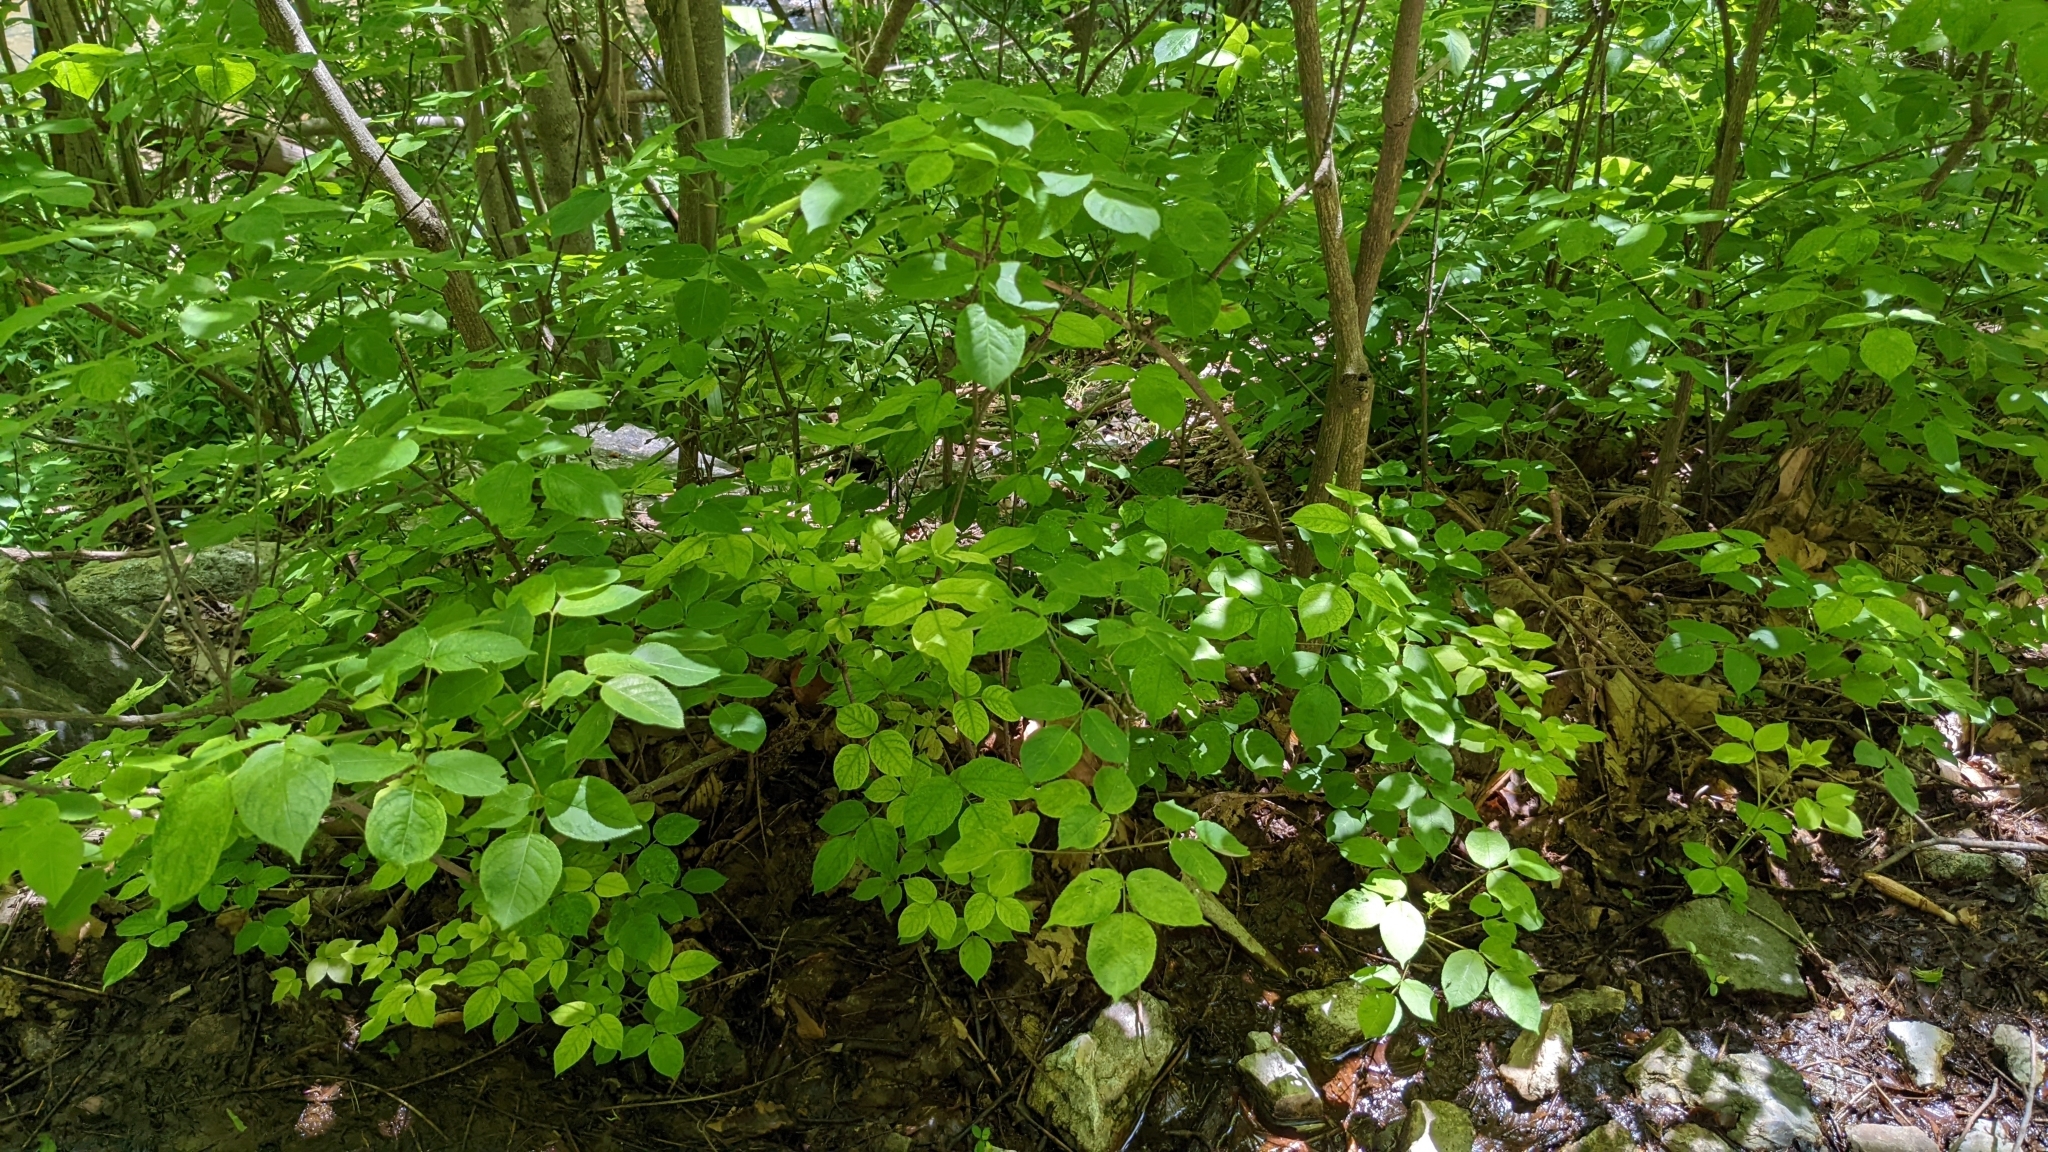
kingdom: Plantae
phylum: Tracheophyta
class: Magnoliopsida
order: Crossosomatales
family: Staphyleaceae
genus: Staphylea
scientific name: Staphylea trifolia
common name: American bladdernut
